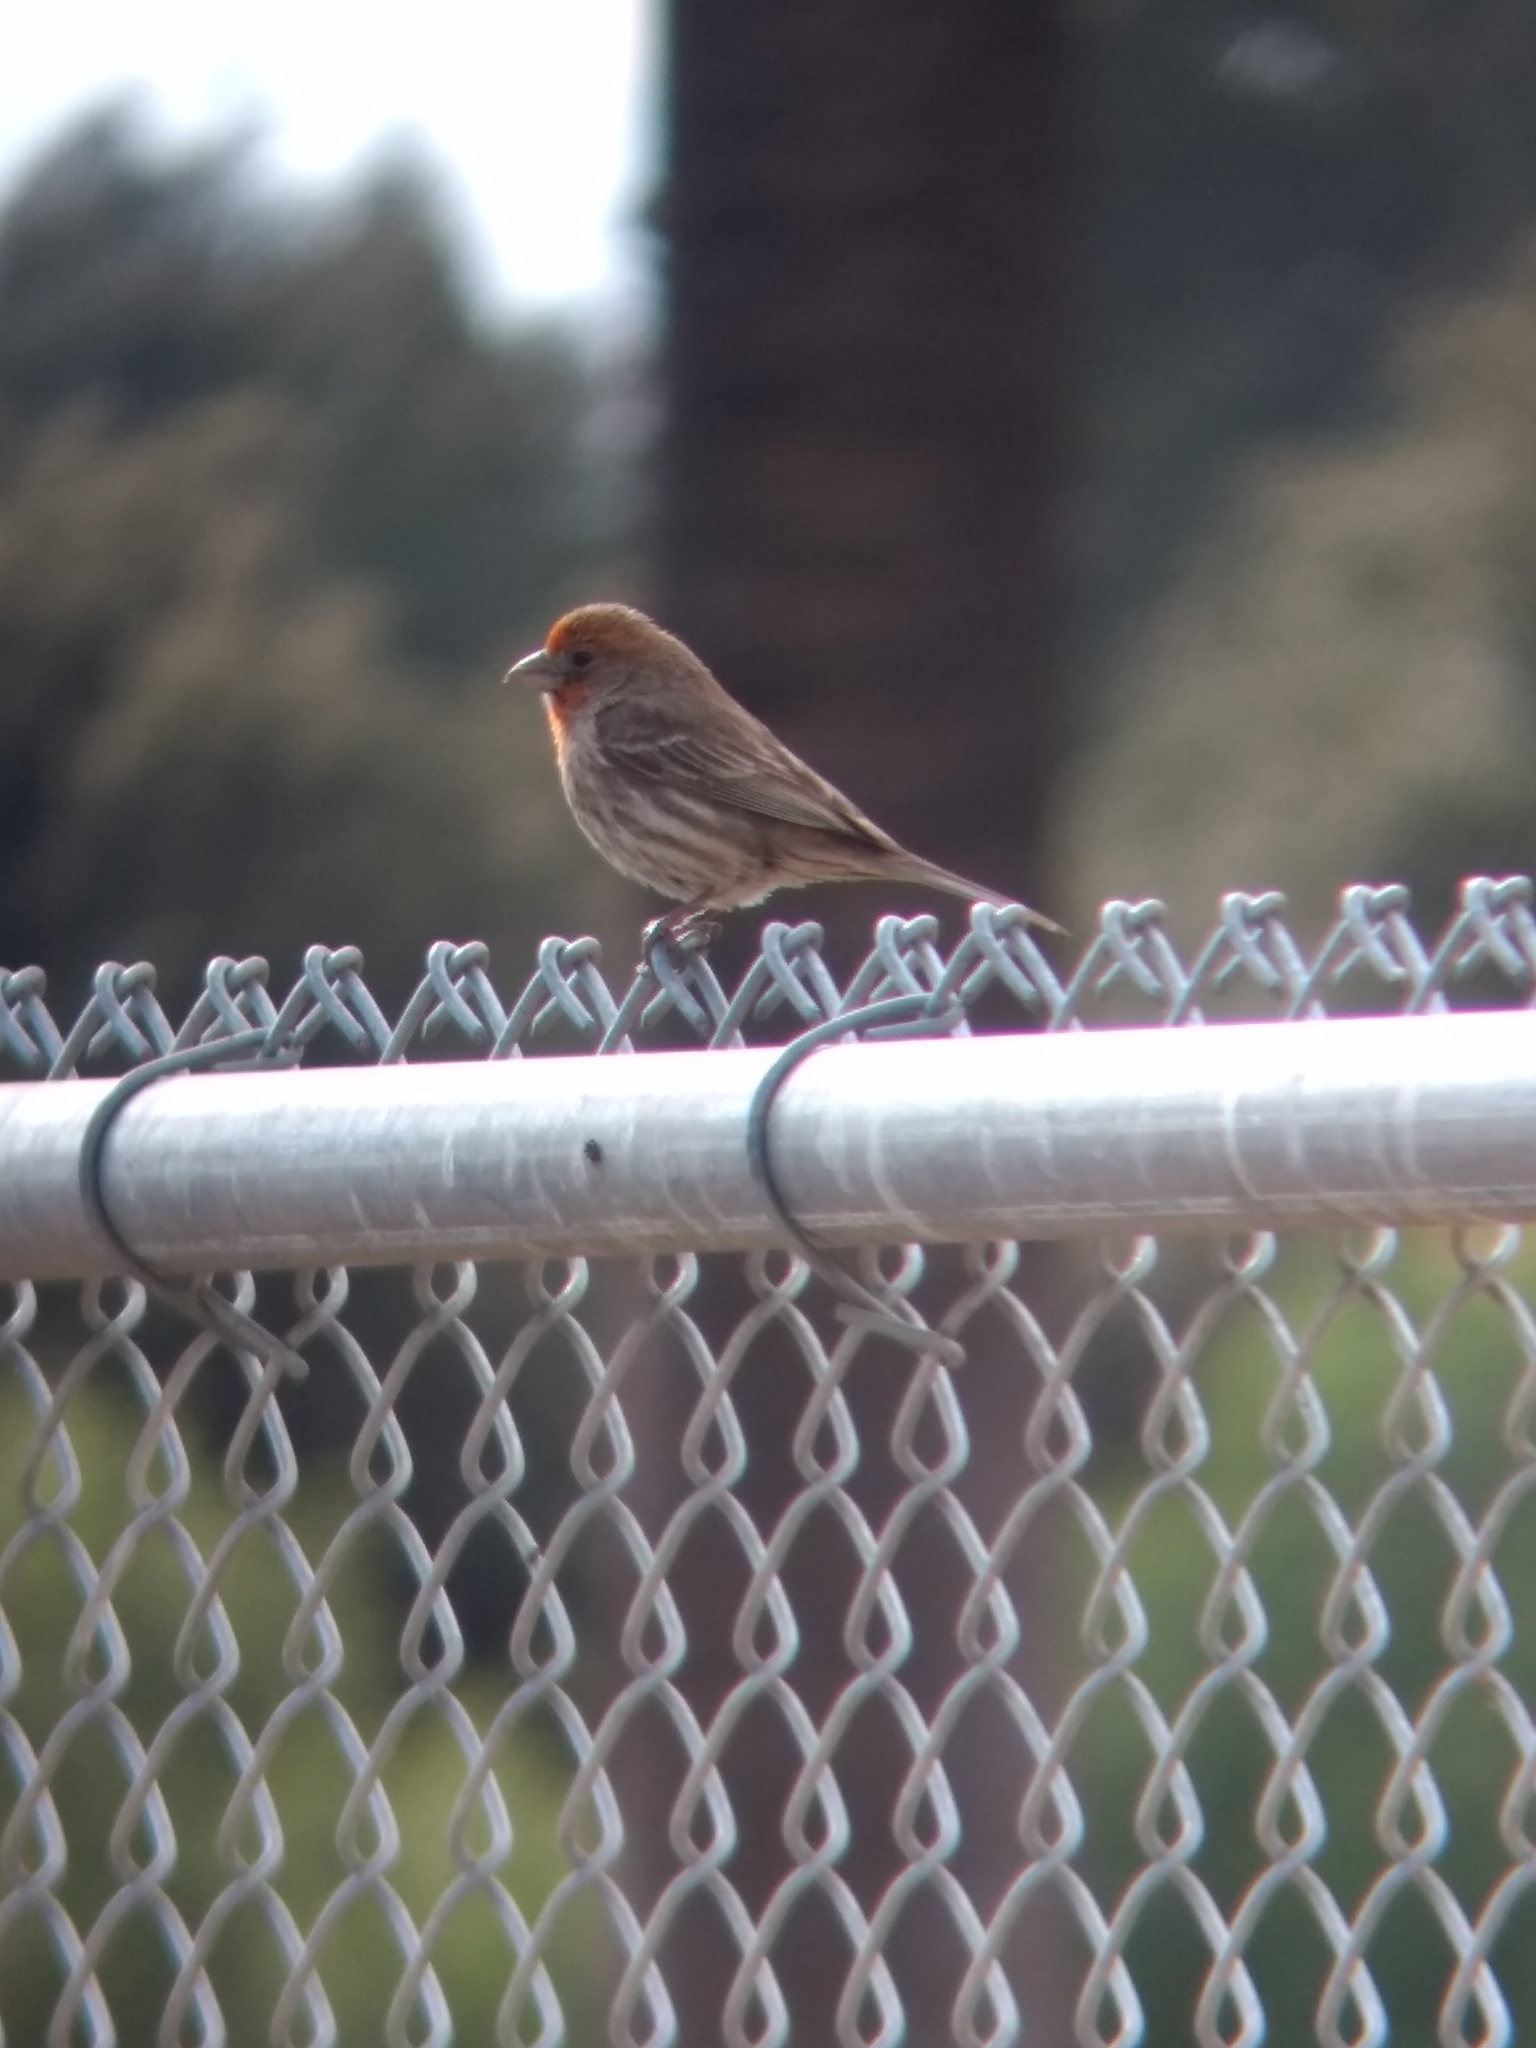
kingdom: Animalia
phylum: Chordata
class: Aves
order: Passeriformes
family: Fringillidae
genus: Haemorhous
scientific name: Haemorhous mexicanus
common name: House finch
